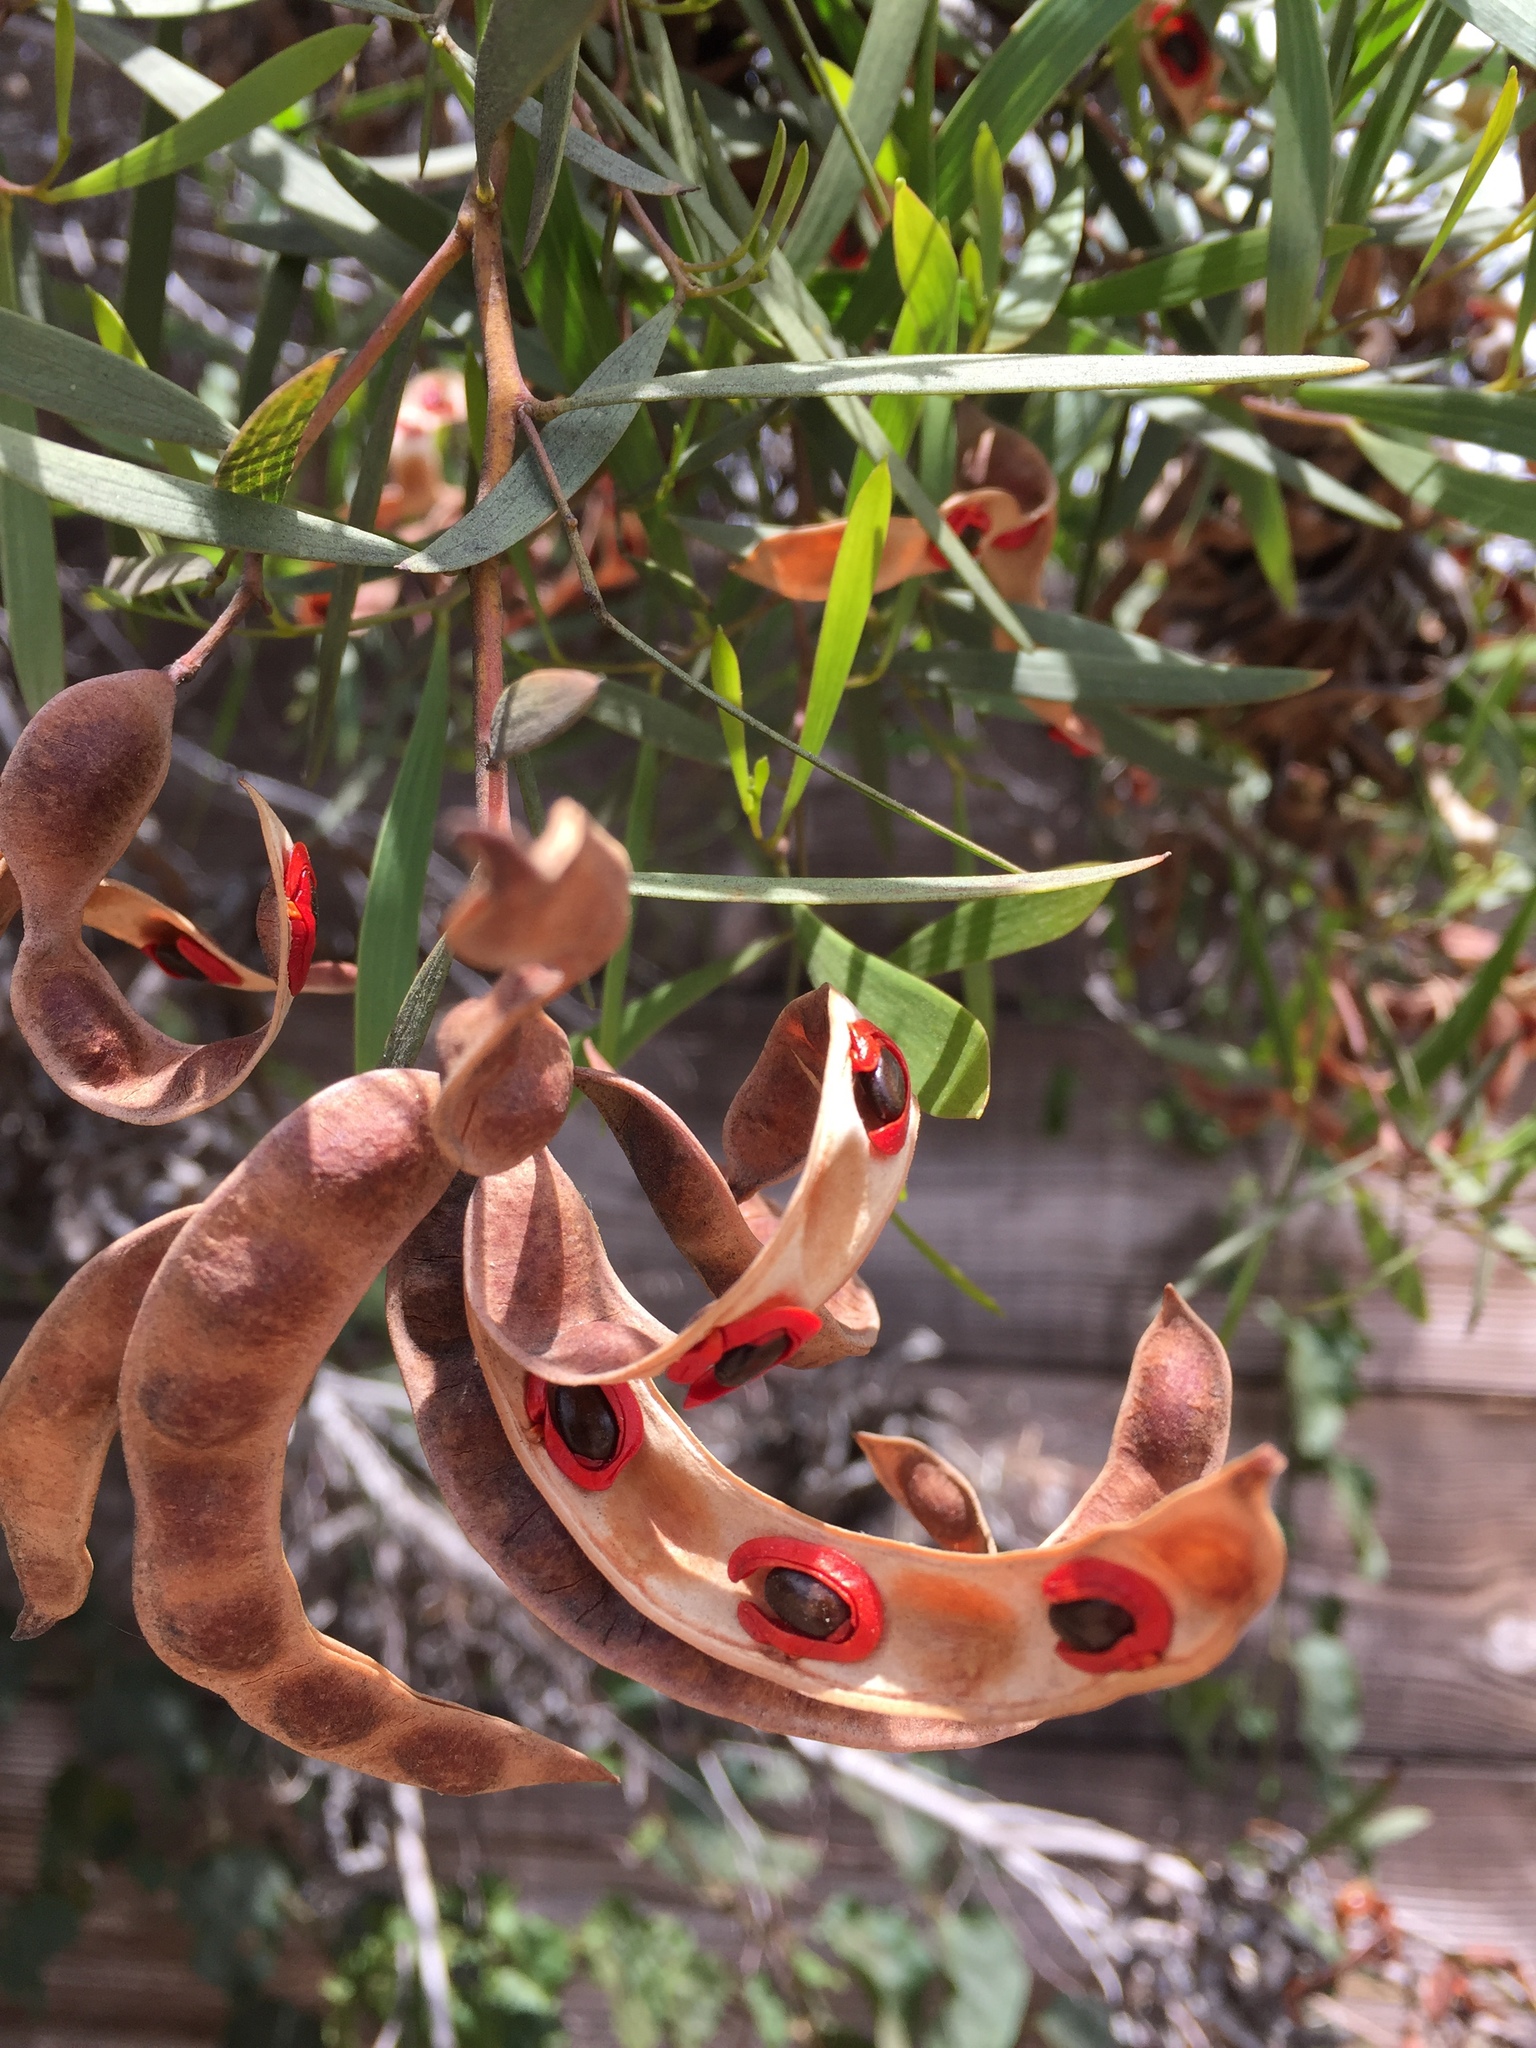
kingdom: Plantae
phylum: Tracheophyta
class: Magnoliopsida
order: Fabales
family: Fabaceae
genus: Acacia
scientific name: Acacia cyclops
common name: Coastal wattle
